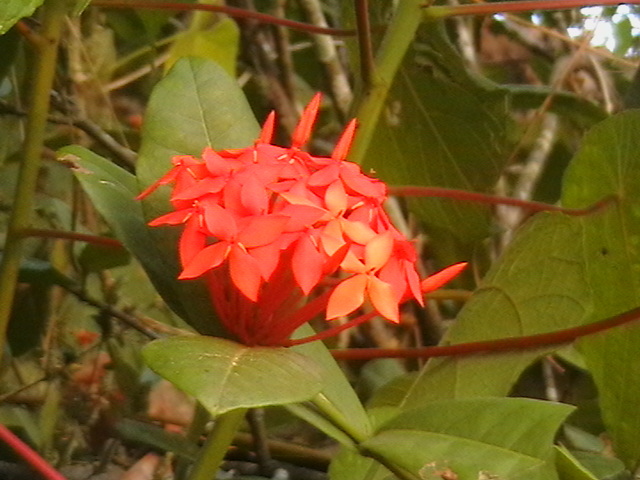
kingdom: Plantae
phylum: Tracheophyta
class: Magnoliopsida
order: Gentianales
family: Rubiaceae
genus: Ixora
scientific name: Ixora coccinea
